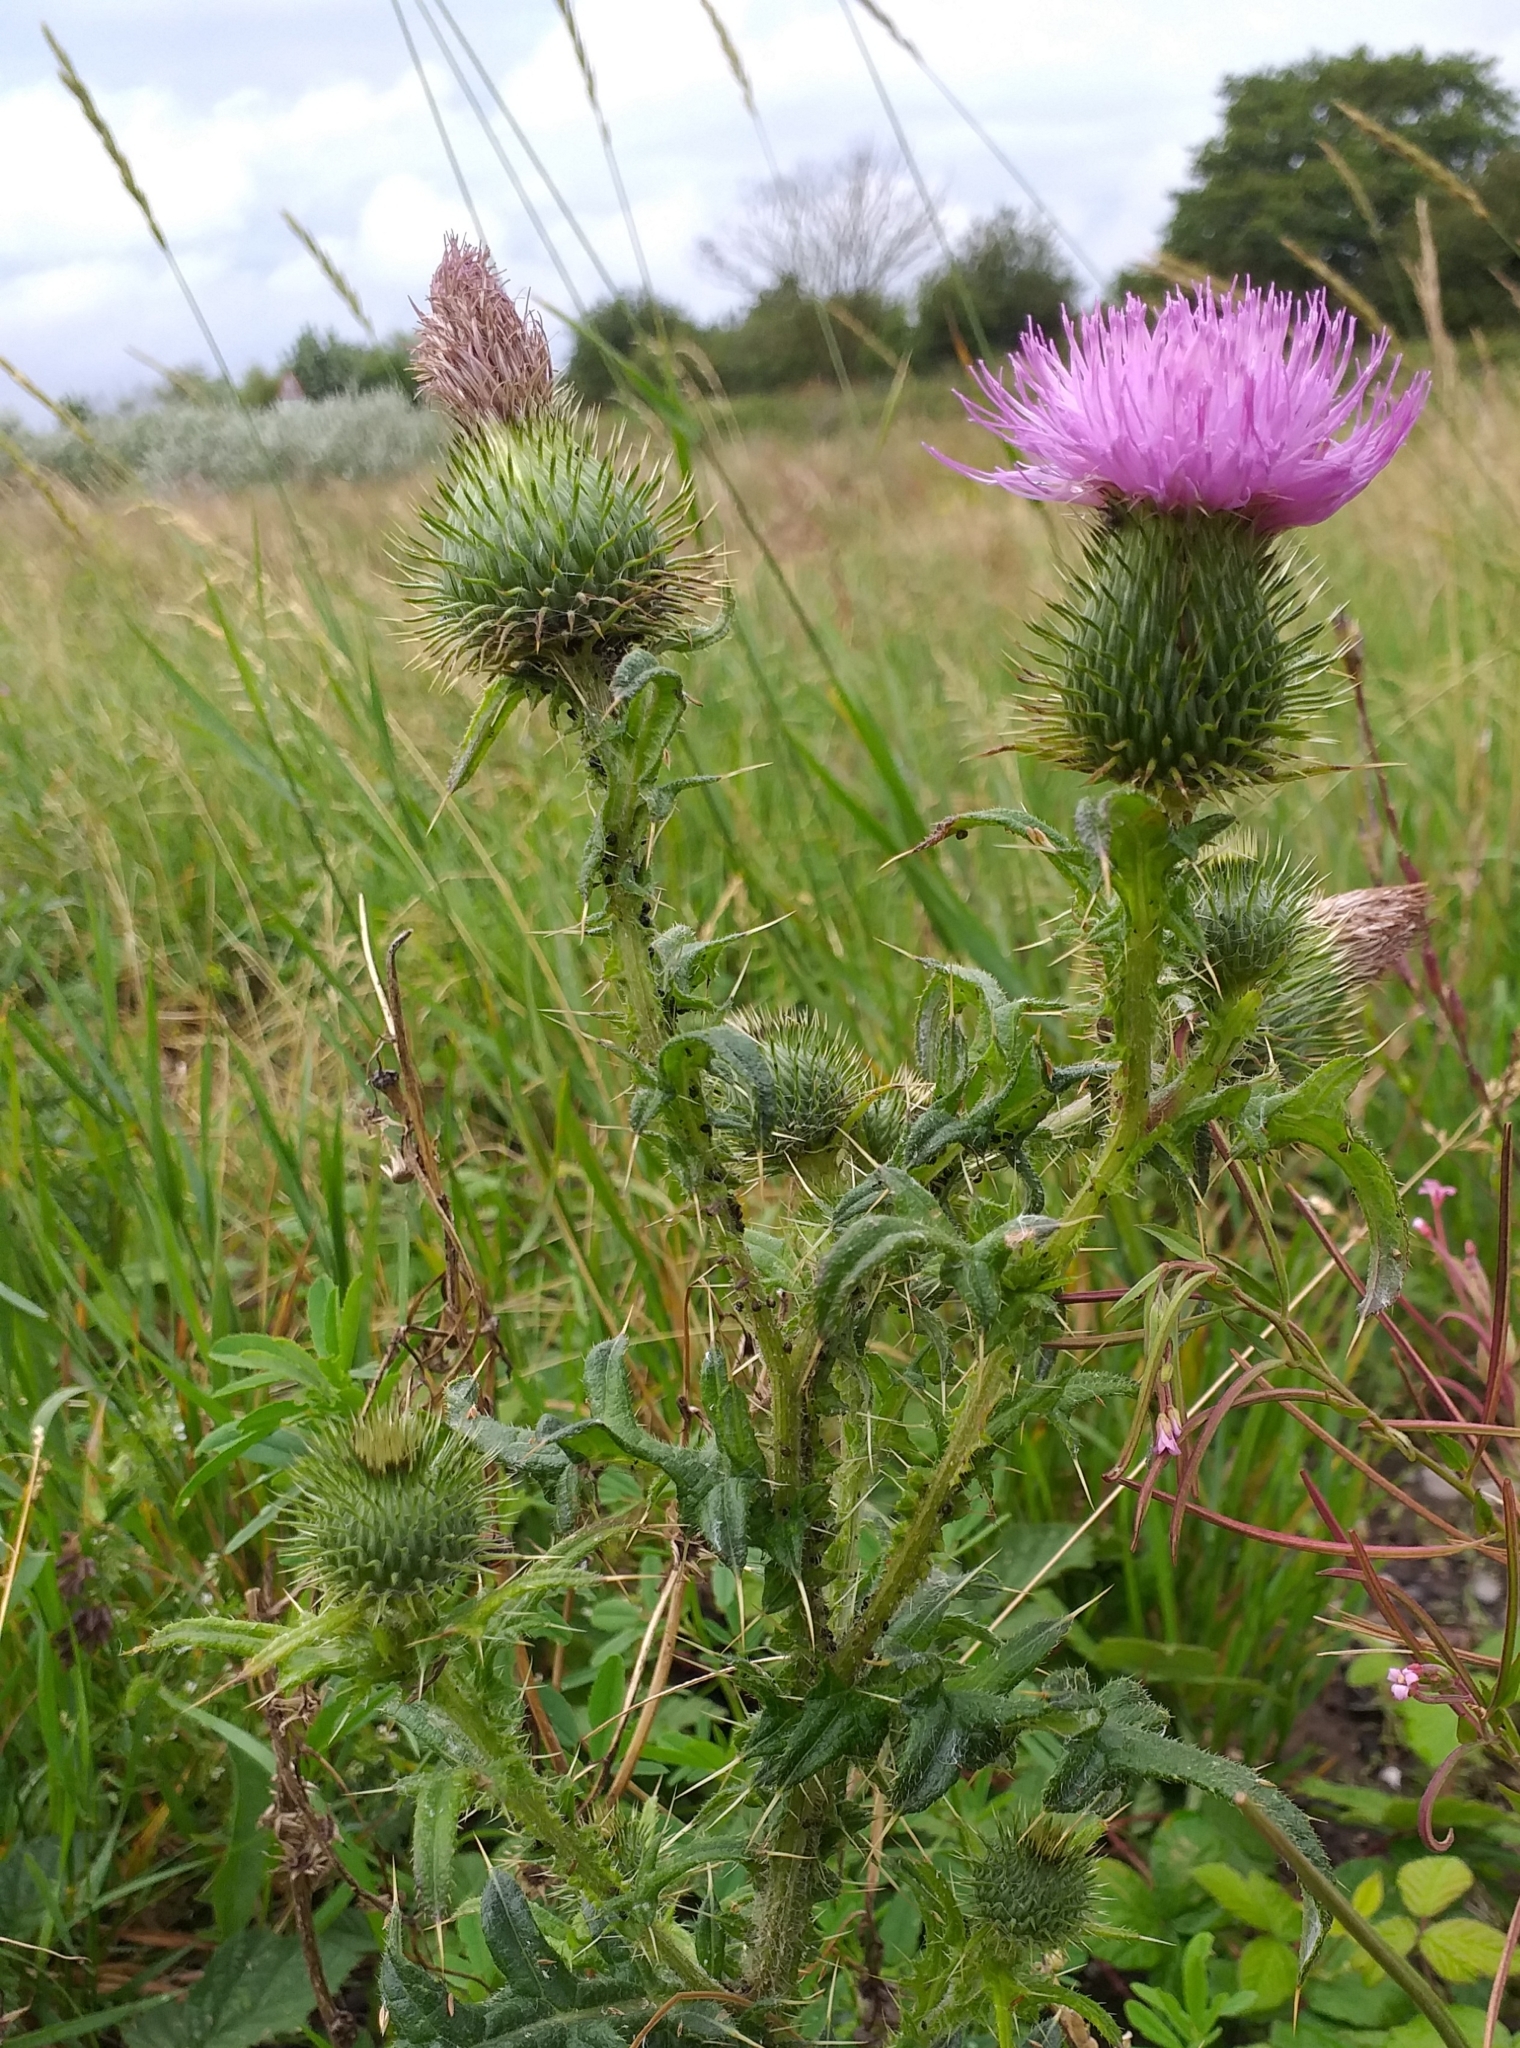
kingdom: Plantae
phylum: Tracheophyta
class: Magnoliopsida
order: Asterales
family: Asteraceae
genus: Cirsium
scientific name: Cirsium vulgare
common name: Bull thistle
